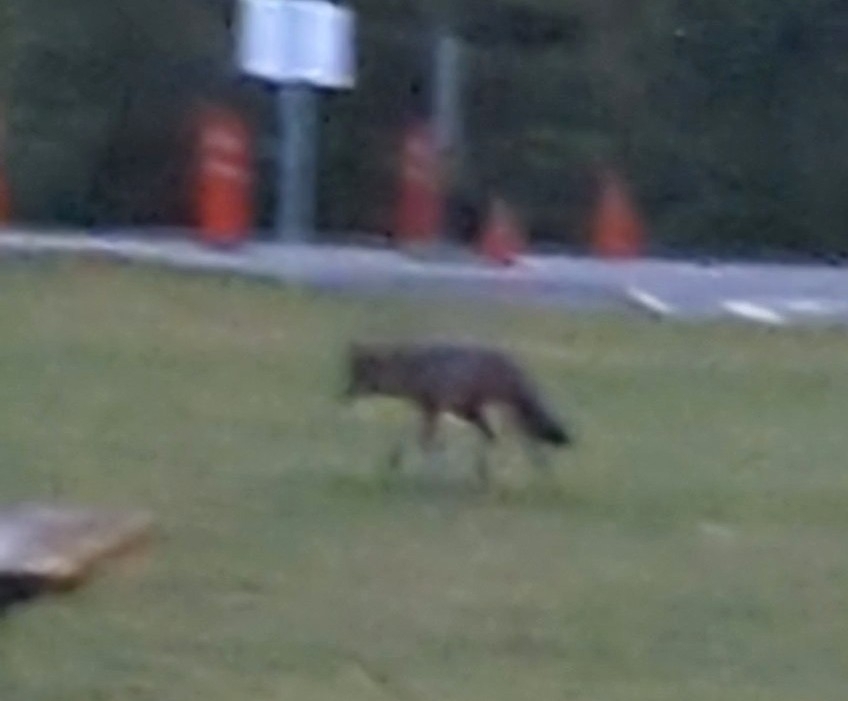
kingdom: Animalia
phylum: Chordata
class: Mammalia
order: Carnivora
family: Canidae
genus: Canis
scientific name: Canis latrans
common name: Coyote
